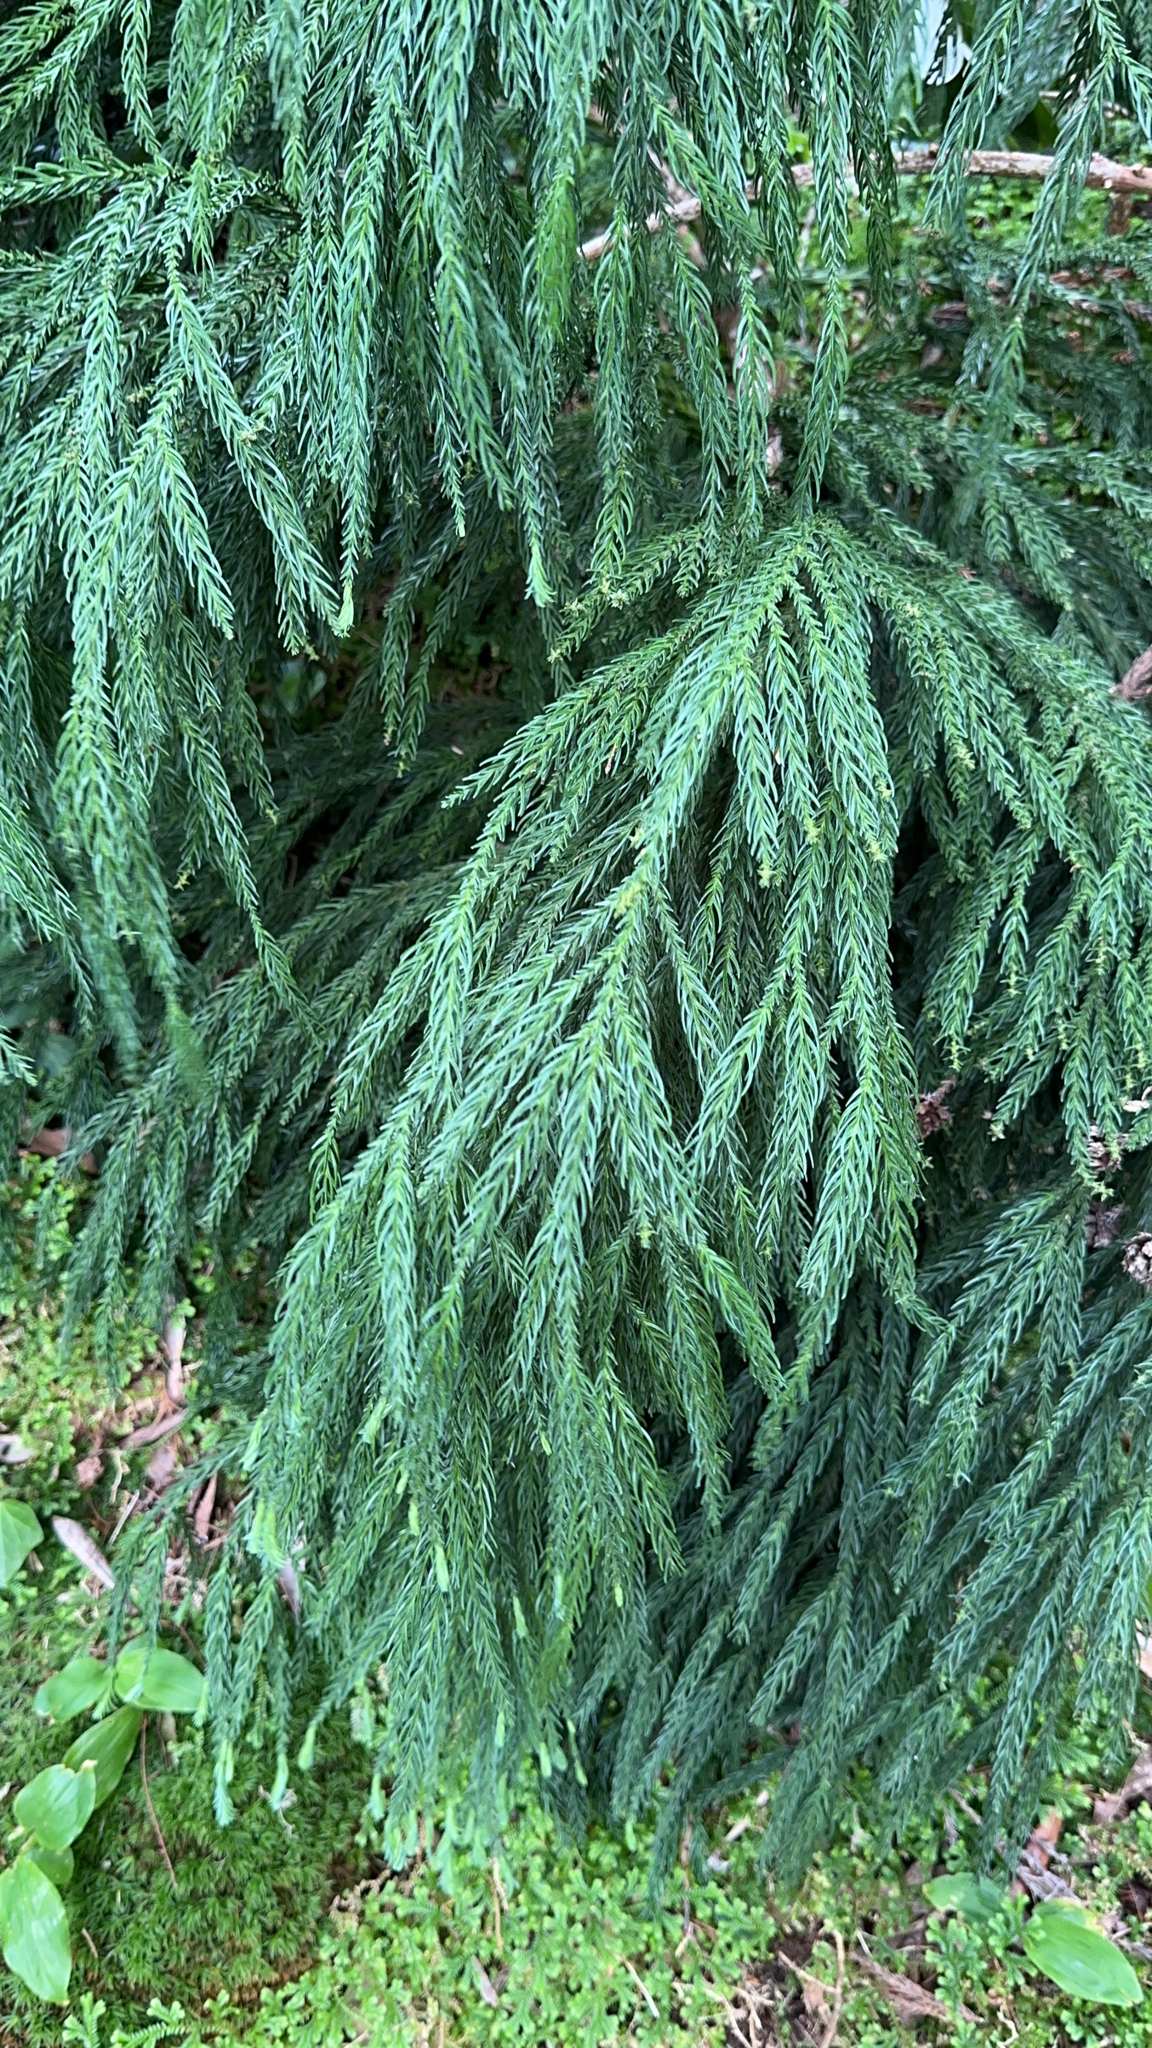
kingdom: Plantae
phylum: Tracheophyta
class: Pinopsida
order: Pinales
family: Cupressaceae
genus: Cryptomeria
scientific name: Cryptomeria japonica
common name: Japanese cedar
